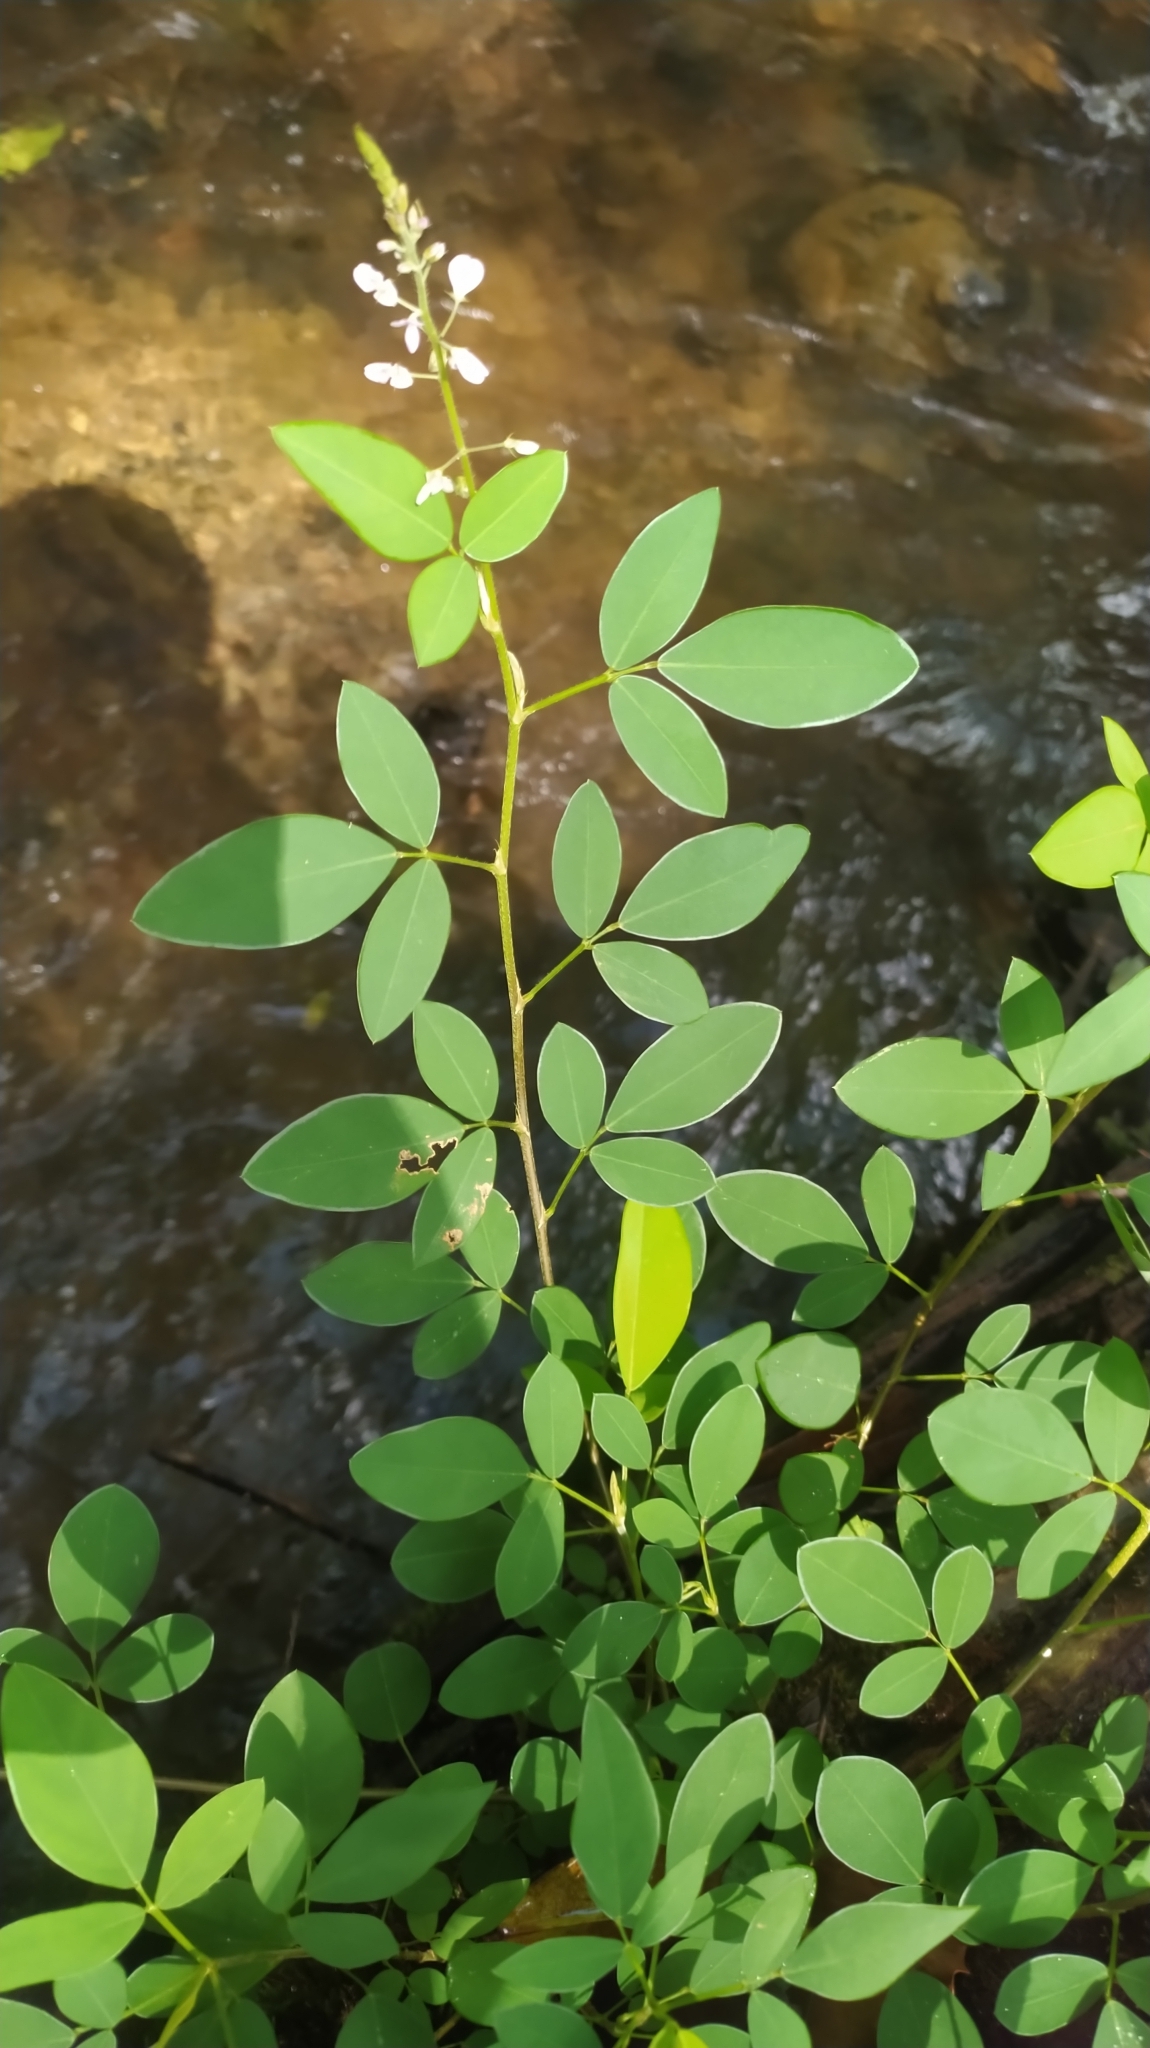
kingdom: Plantae
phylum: Tracheophyta
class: Magnoliopsida
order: Fabales
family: Fabaceae
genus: Grona
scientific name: Grona adscendens
